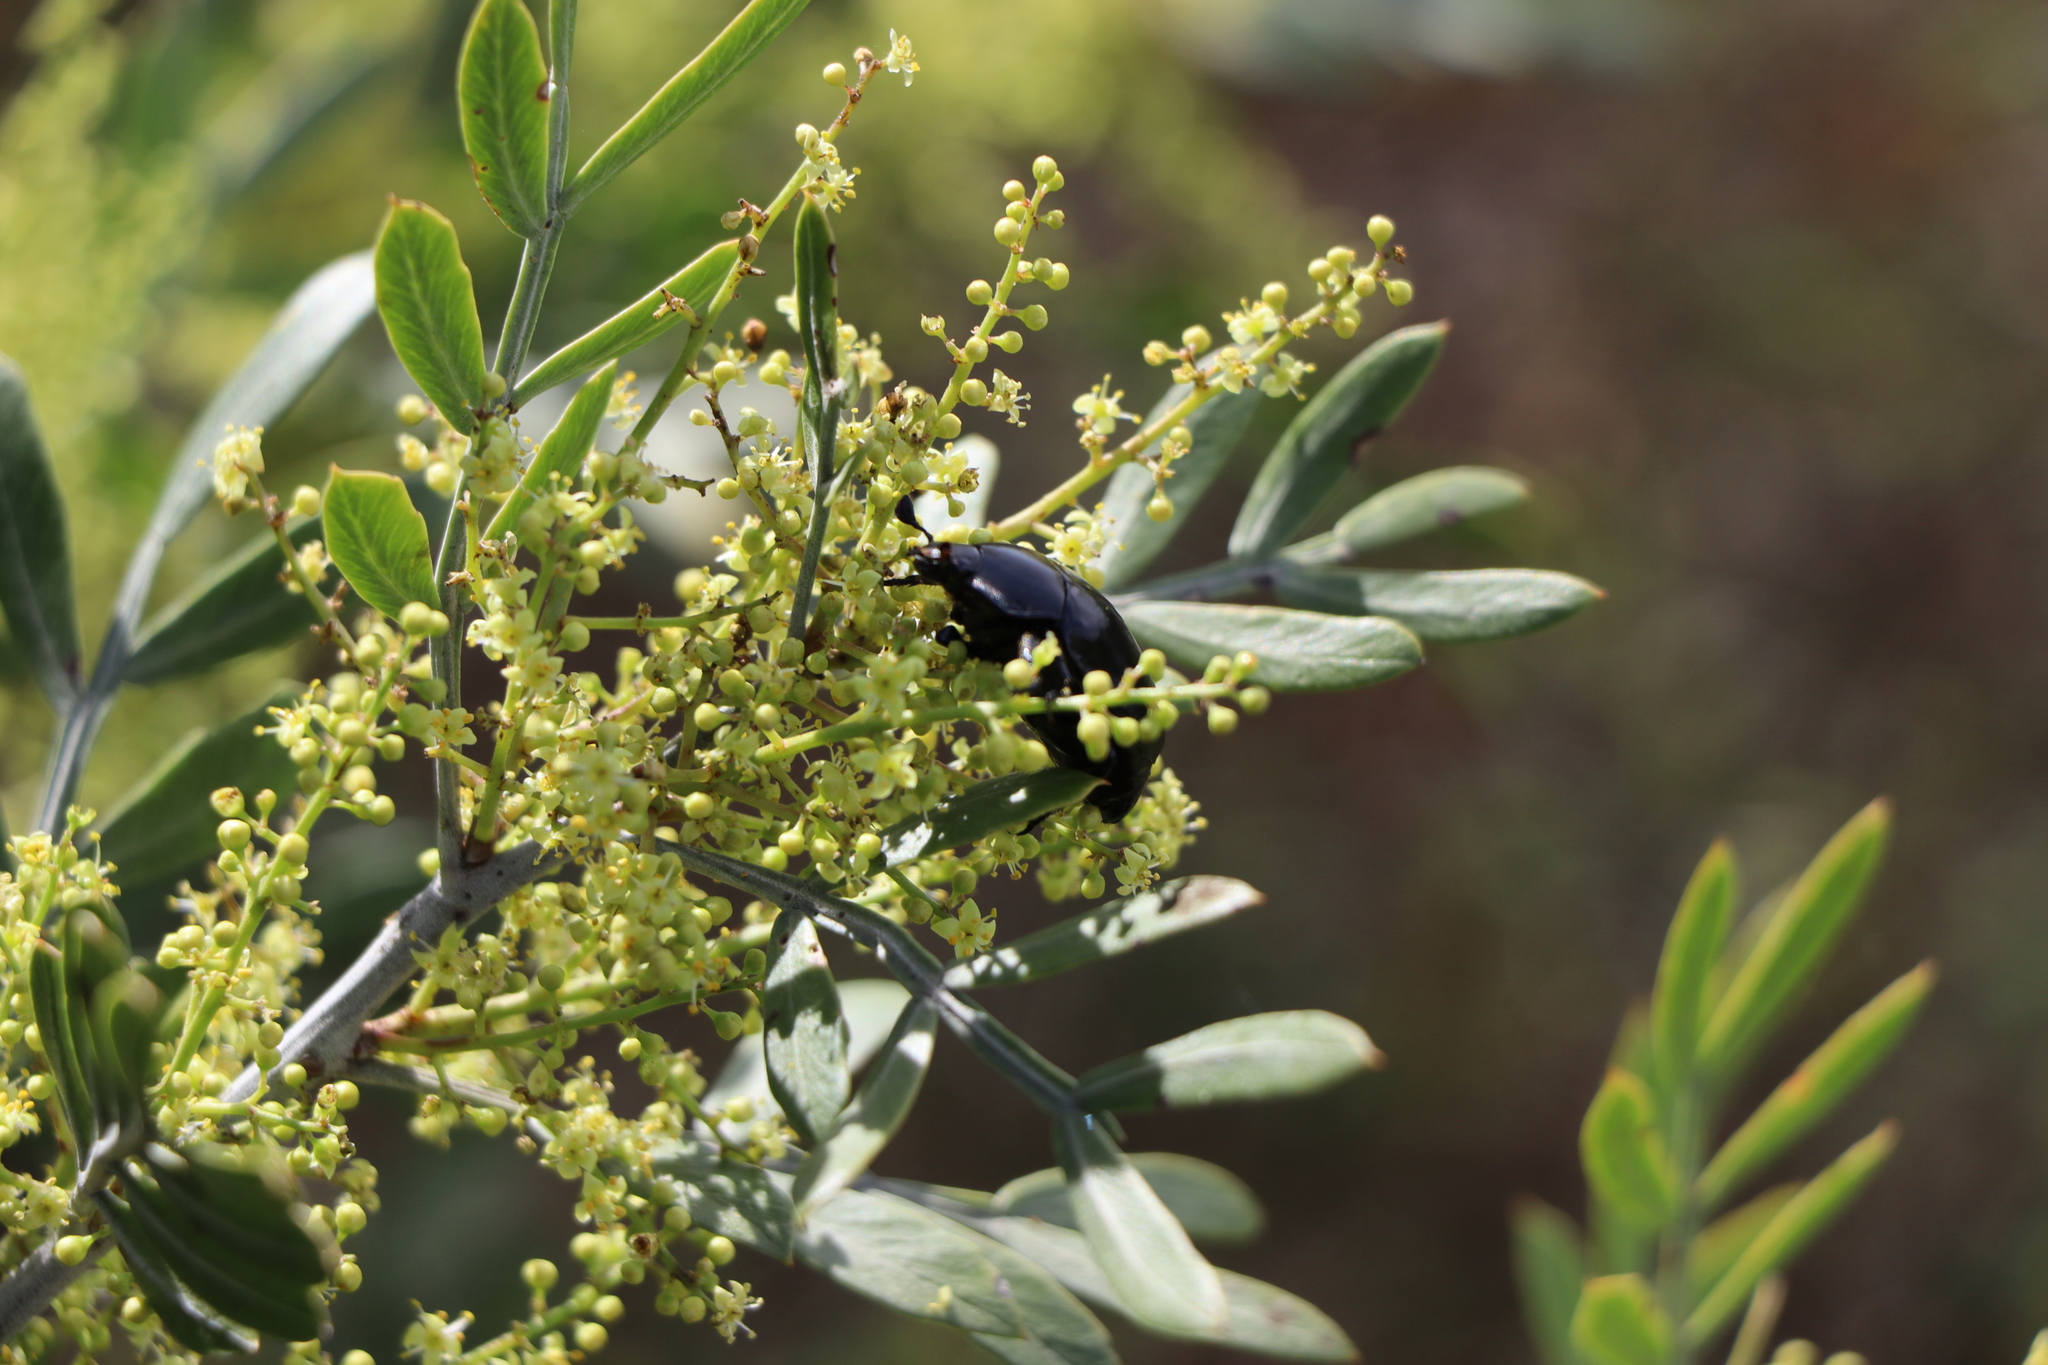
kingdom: Animalia
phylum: Arthropoda
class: Insecta
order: Coleoptera
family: Scarabaeidae
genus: Macraspis
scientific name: Macraspis dichroa
